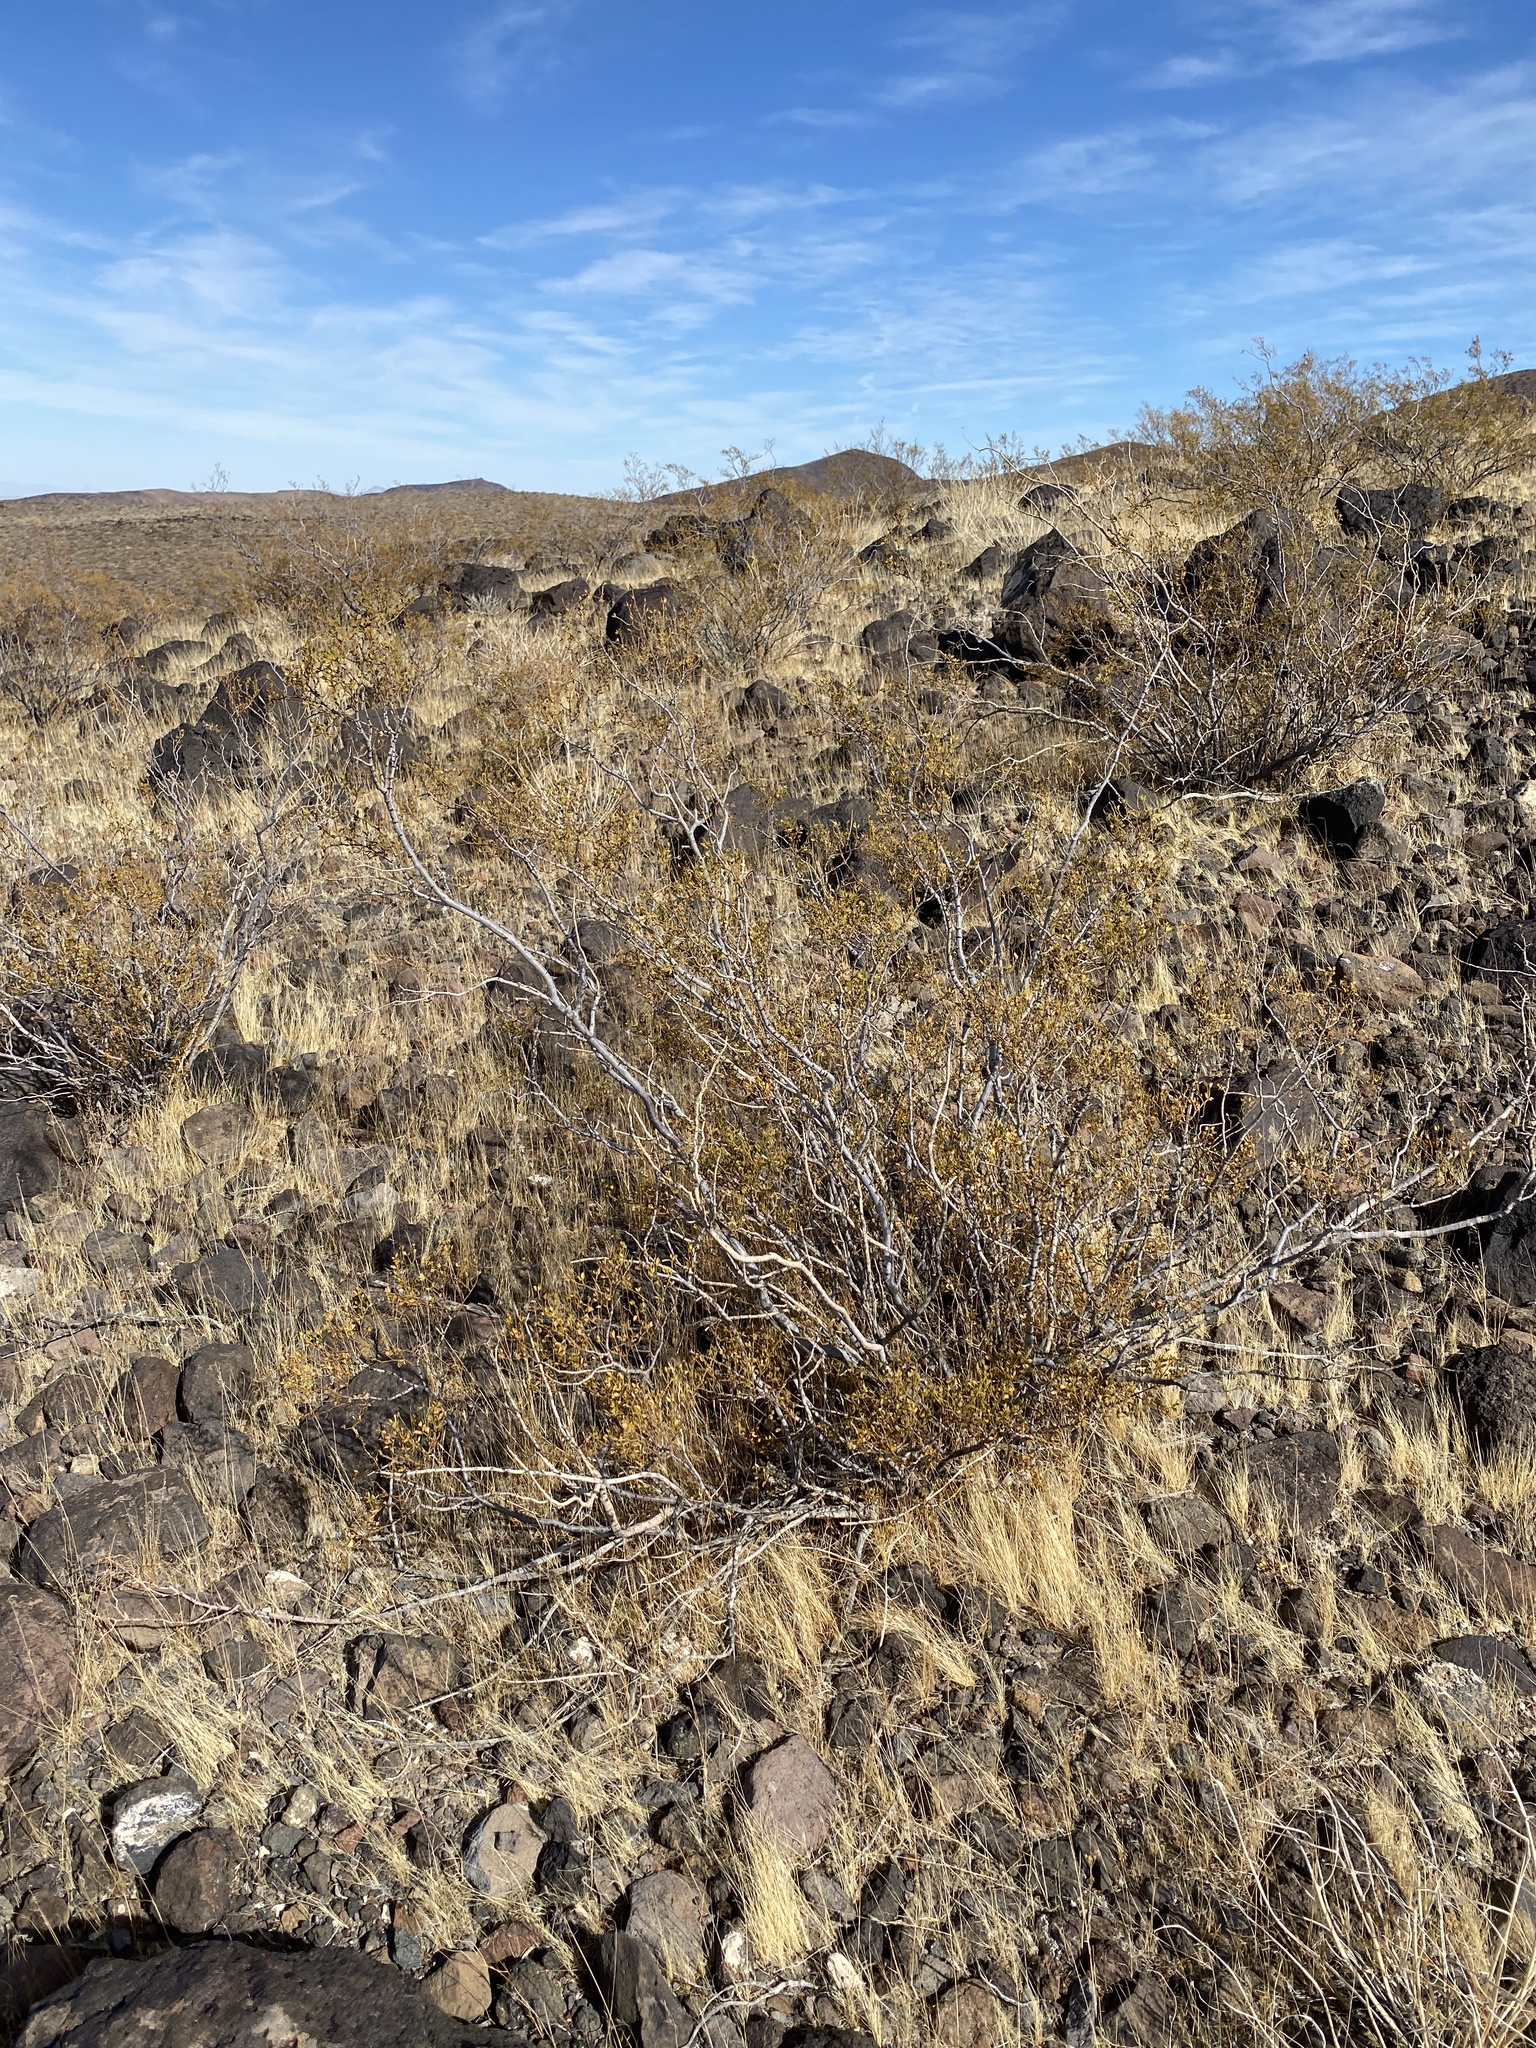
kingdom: Plantae
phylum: Tracheophyta
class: Magnoliopsida
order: Zygophyllales
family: Zygophyllaceae
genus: Larrea
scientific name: Larrea tridentata
